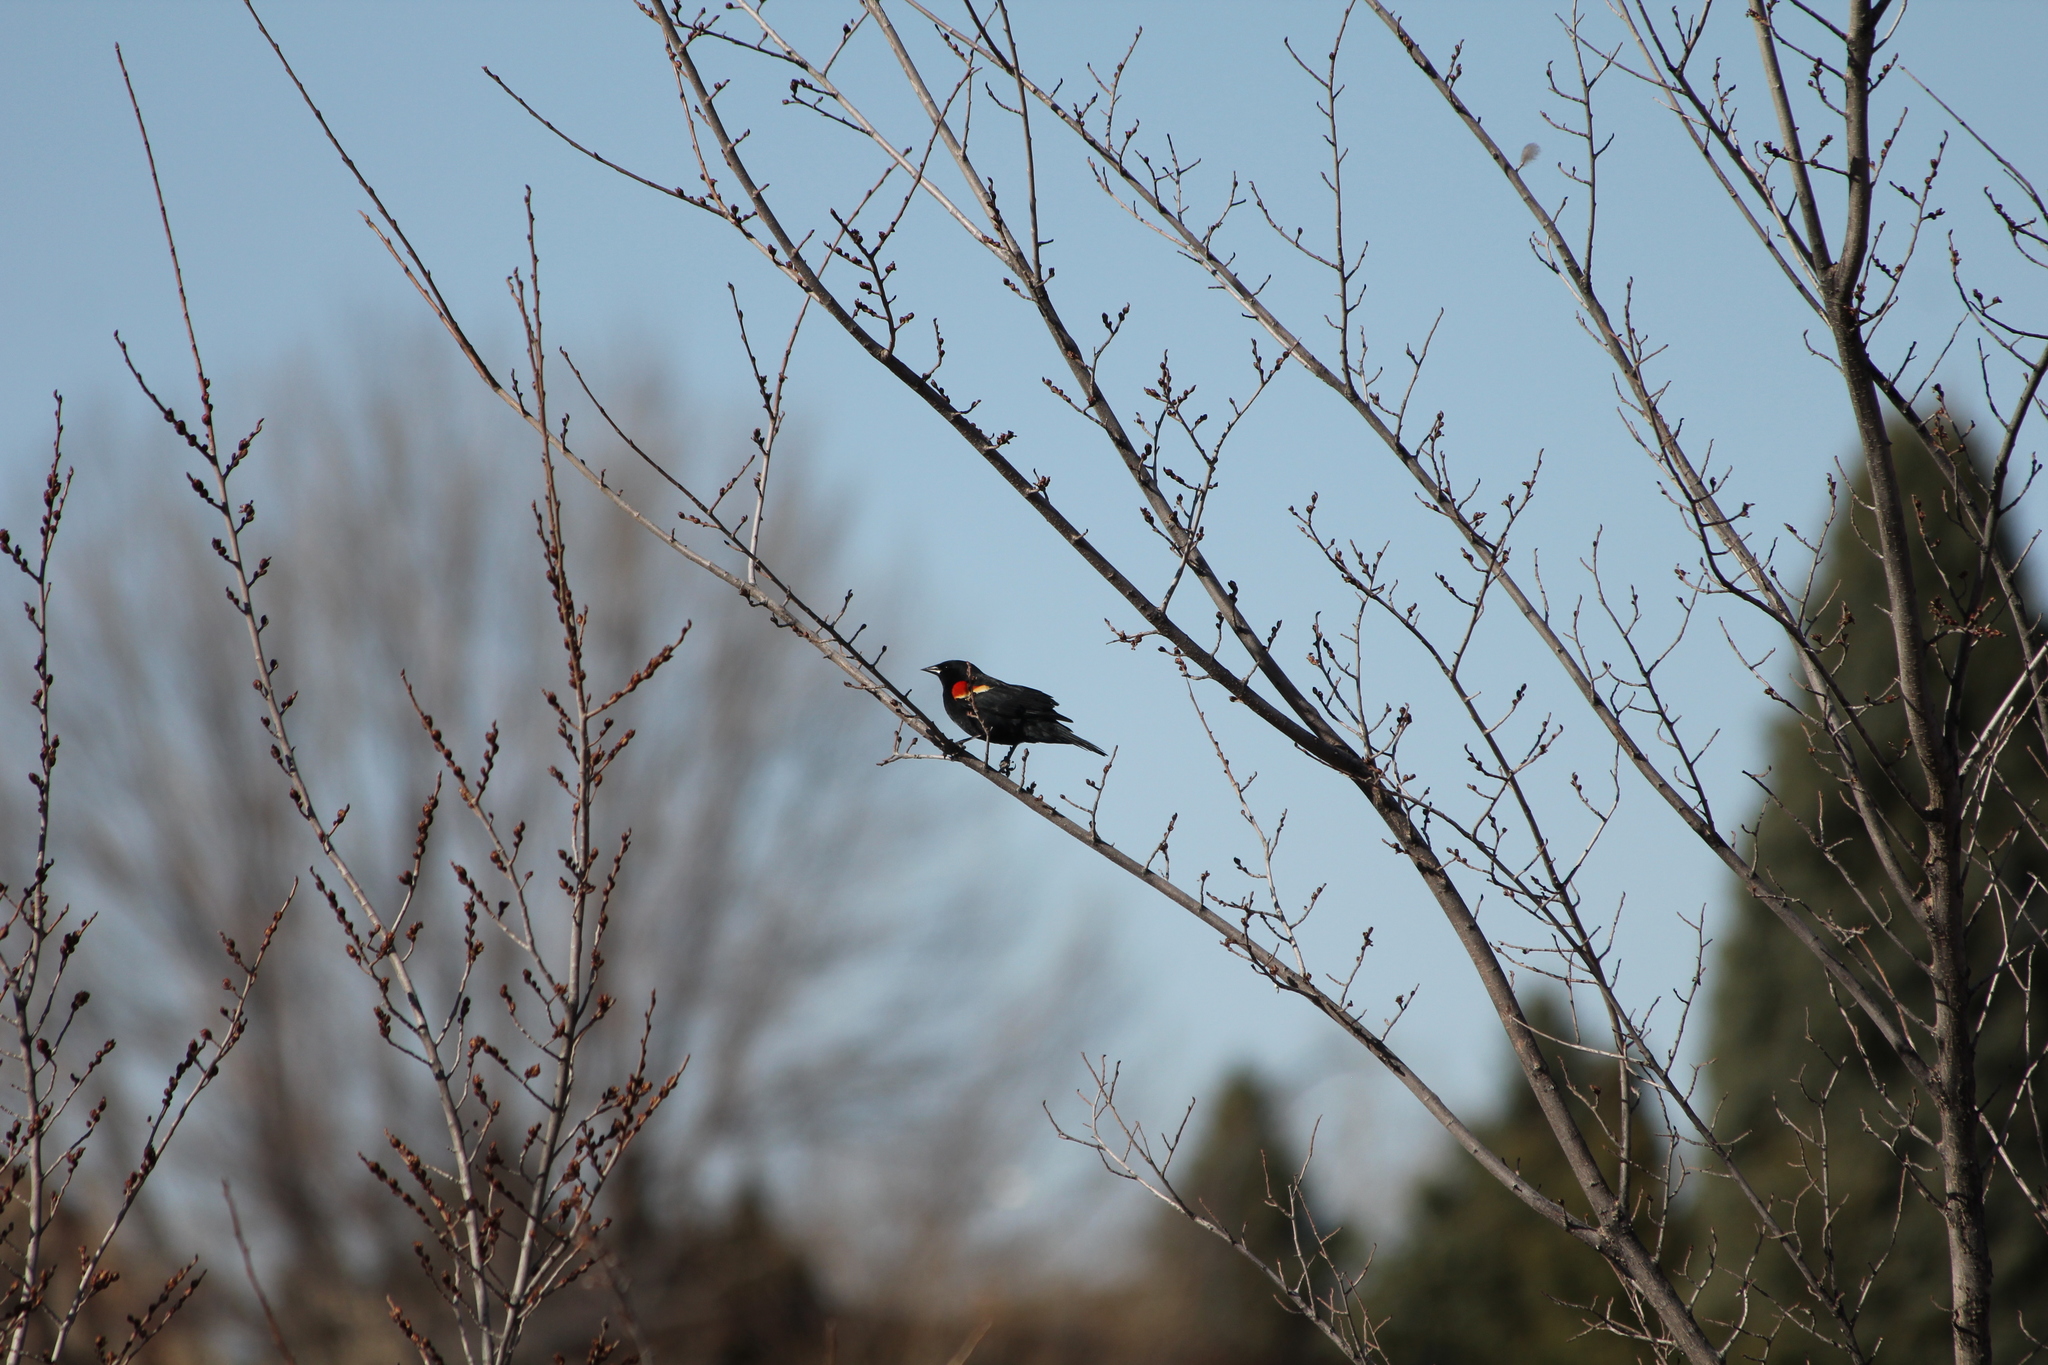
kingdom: Animalia
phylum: Chordata
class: Aves
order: Passeriformes
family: Icteridae
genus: Agelaius
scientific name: Agelaius phoeniceus
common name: Red-winged blackbird
